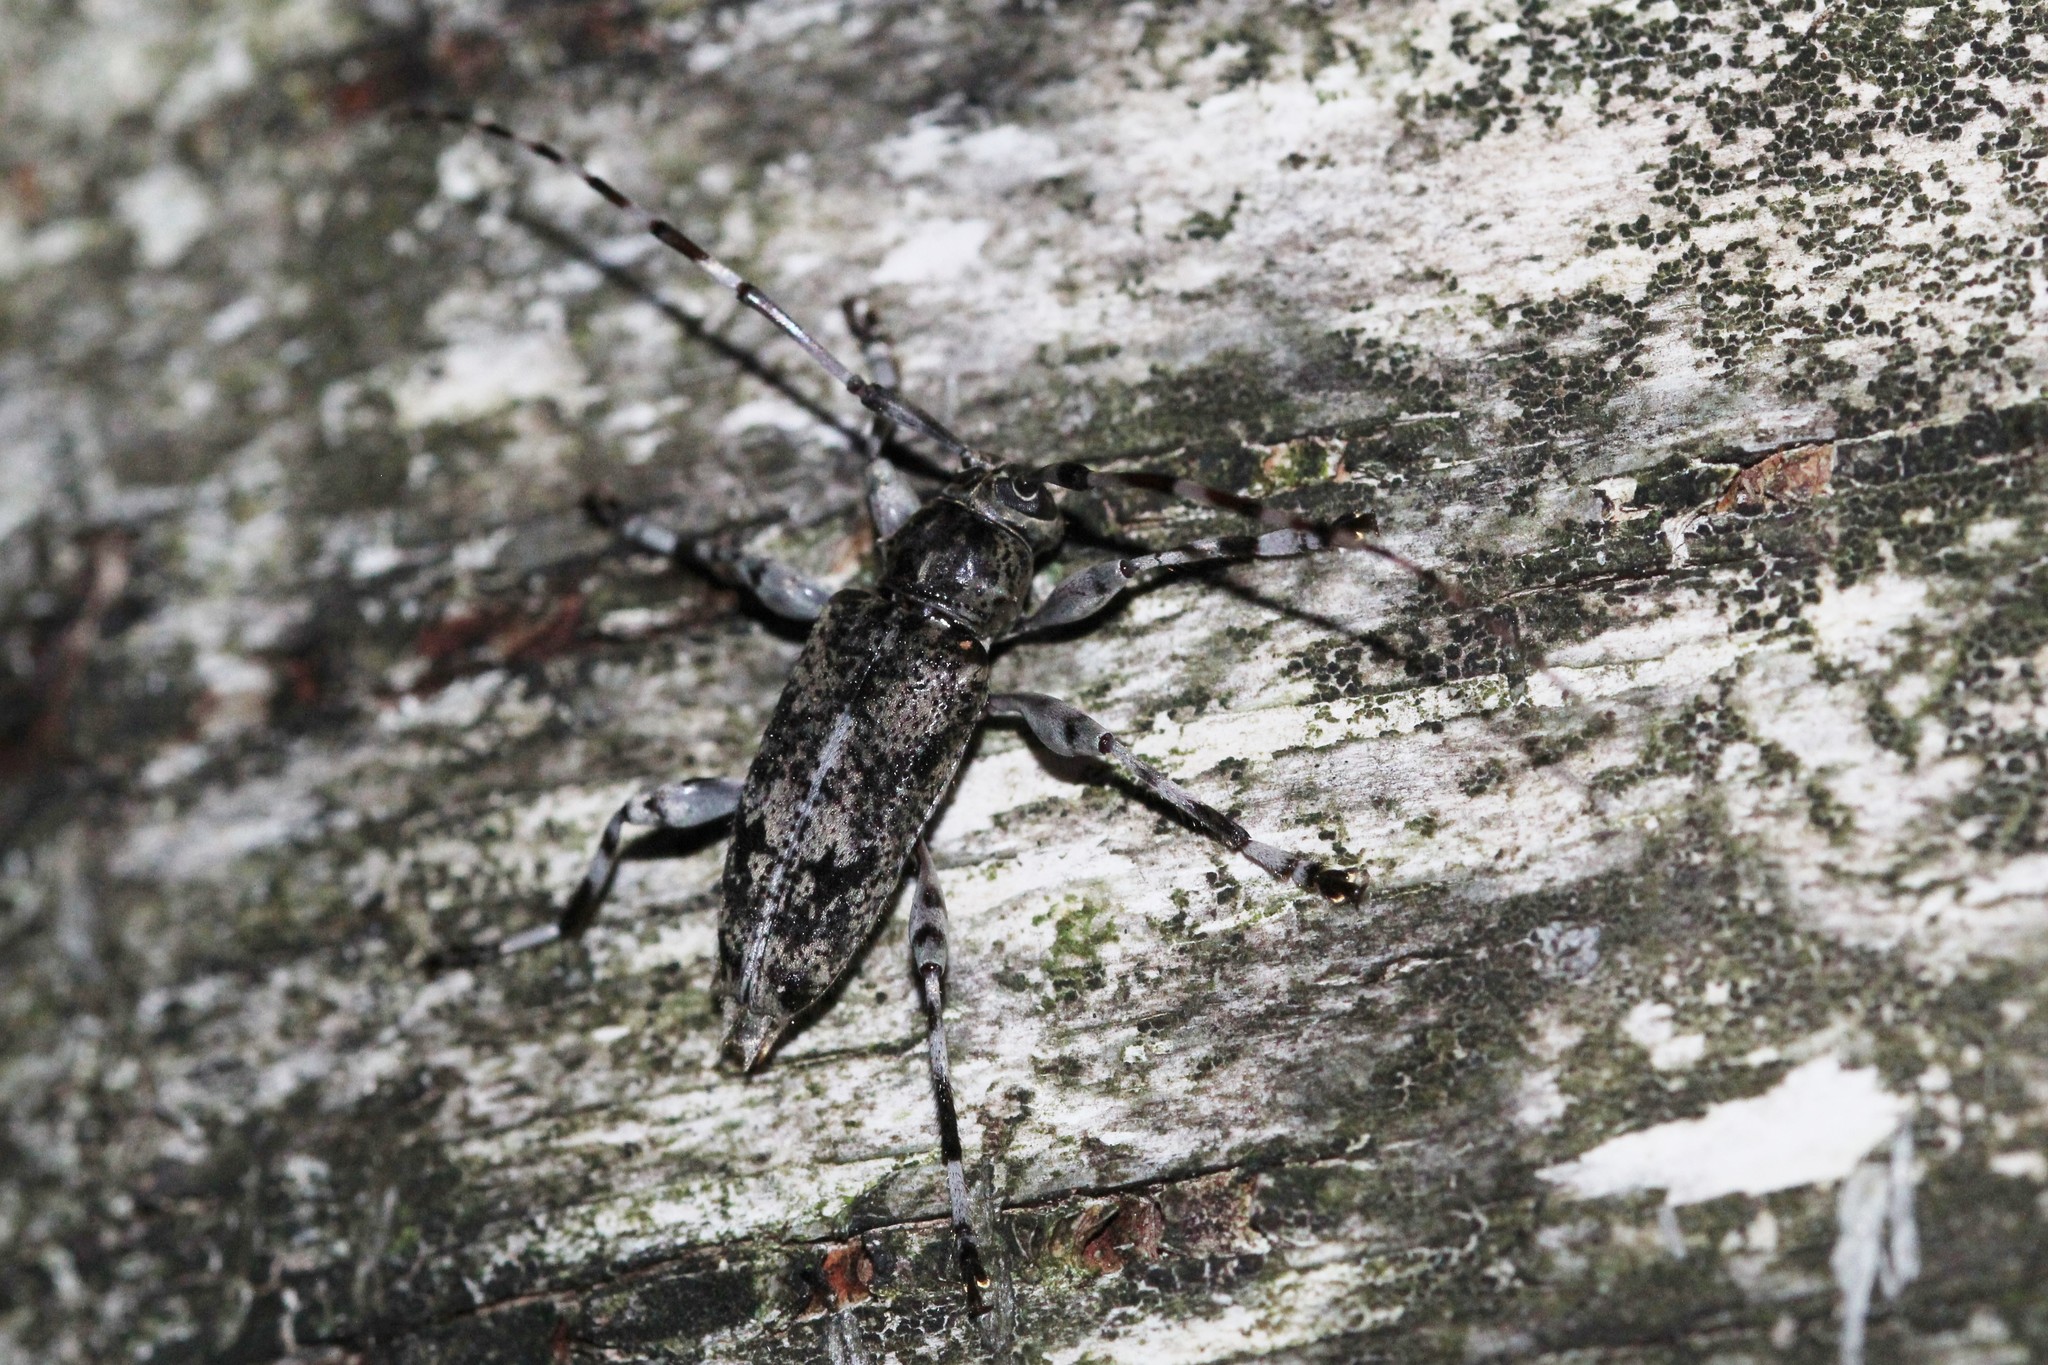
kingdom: Animalia
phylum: Arthropoda
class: Insecta
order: Coleoptera
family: Cerambycidae
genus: Graphisurus
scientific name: Graphisurus fasciatus
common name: Banded graphisurus
